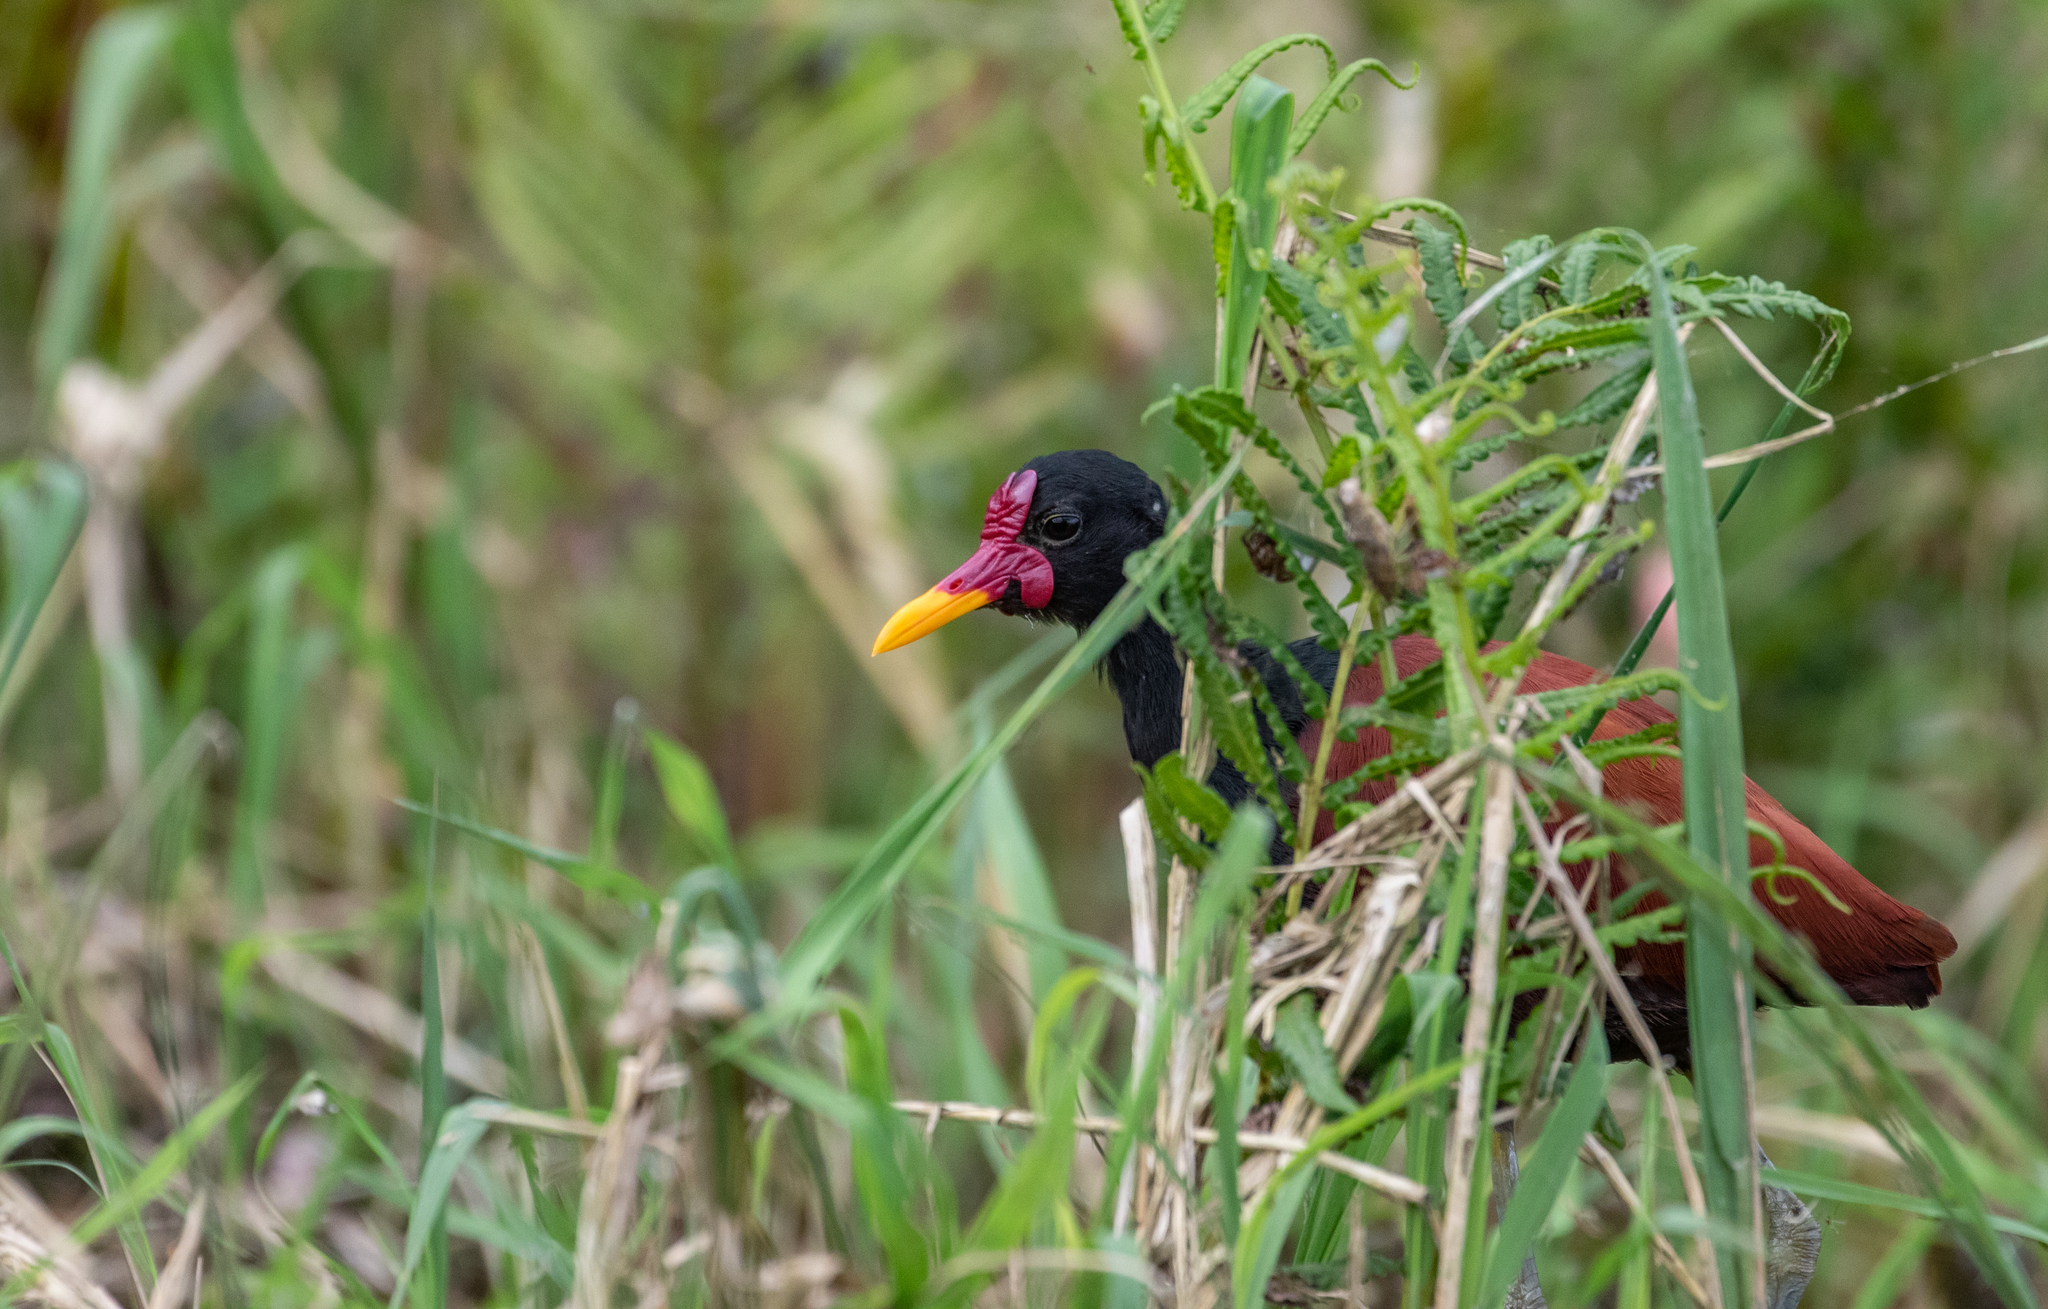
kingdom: Animalia
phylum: Chordata
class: Aves
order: Charadriiformes
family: Jacanidae
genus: Jacana
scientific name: Jacana jacana
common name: Wattled jacana
